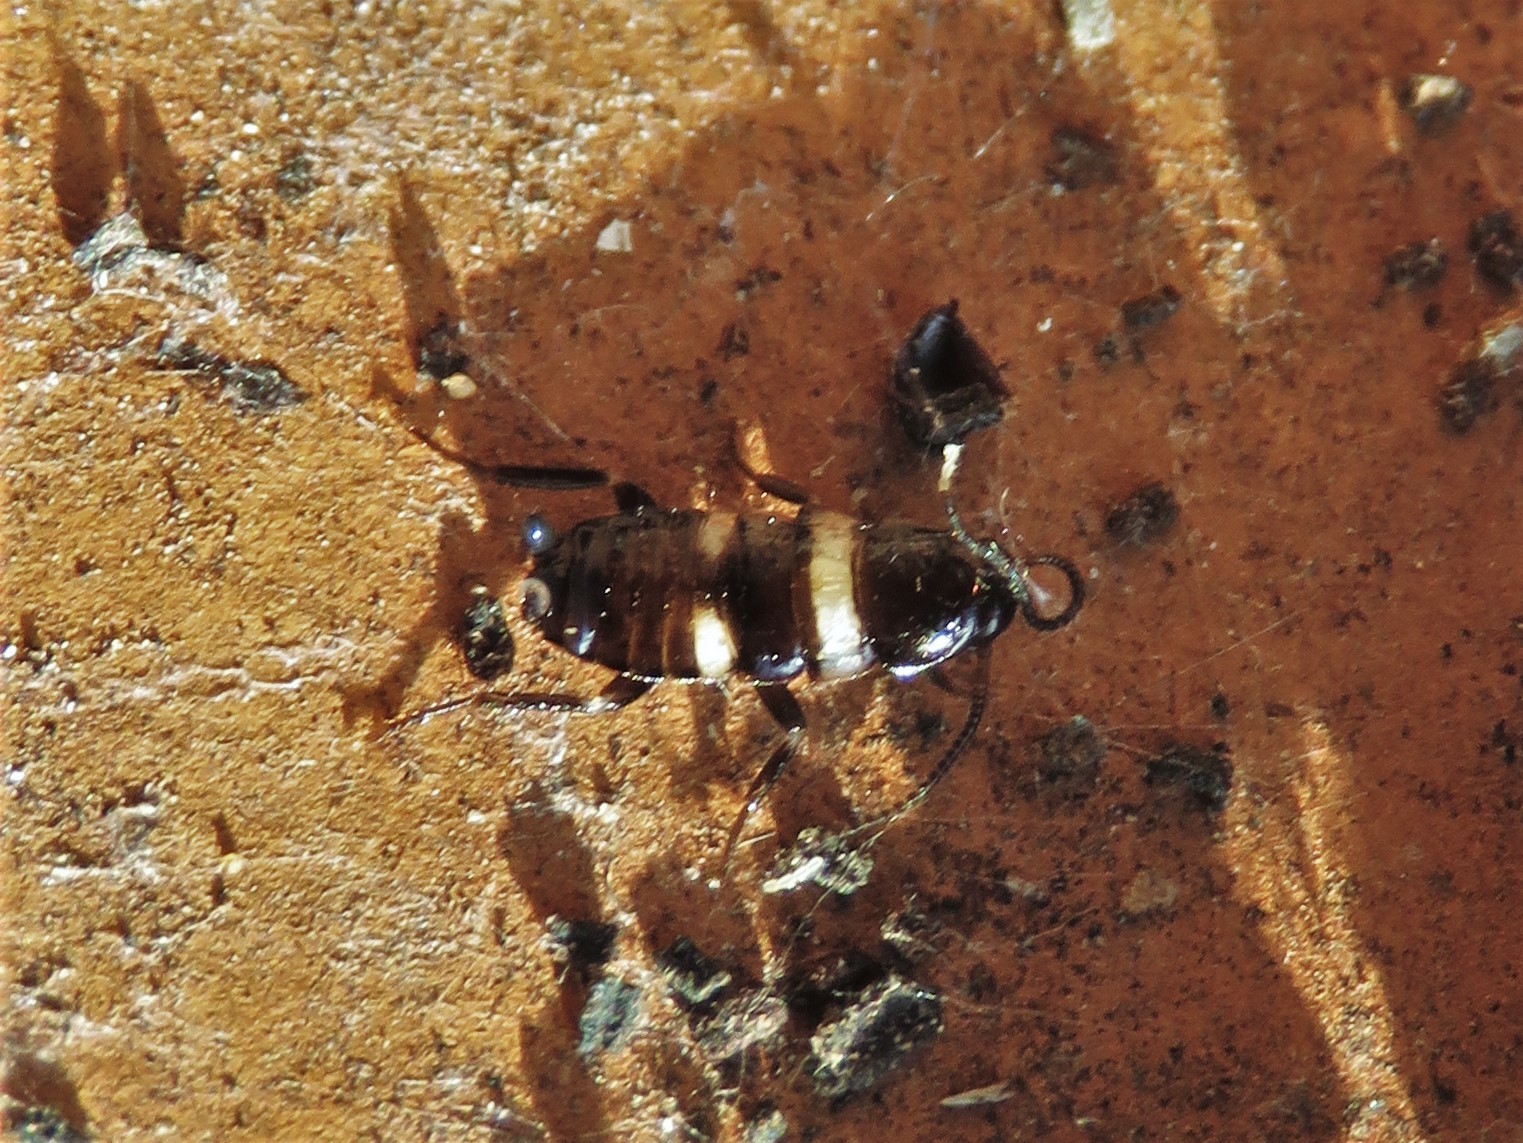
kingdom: Animalia
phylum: Arthropoda
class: Insecta
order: Blattodea
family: Blattidae
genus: Periplaneta
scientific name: Periplaneta fuliginosa
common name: Smokeybrown cockroad
